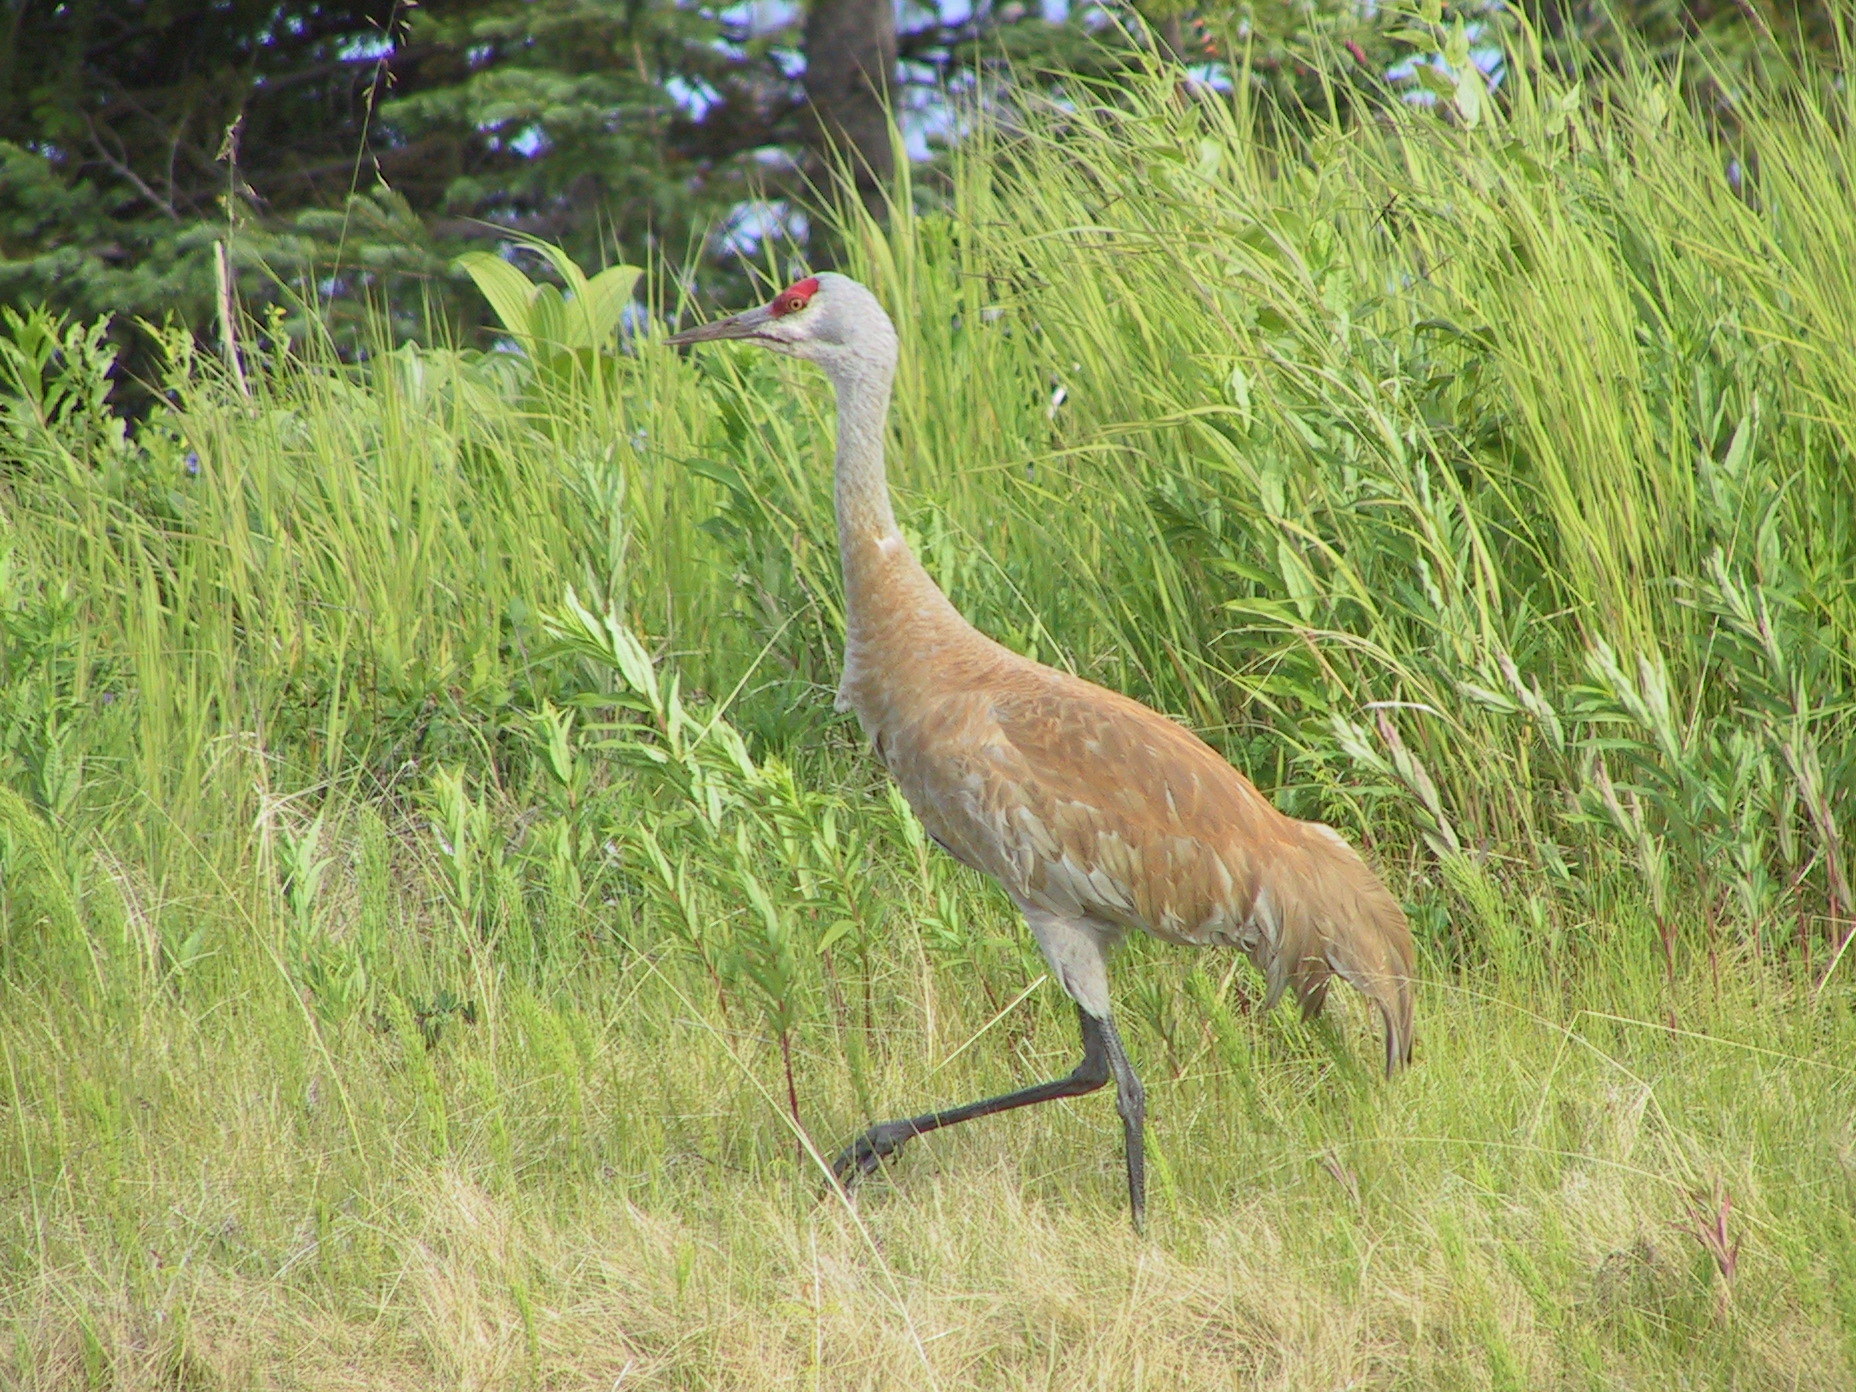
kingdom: Animalia
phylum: Chordata
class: Aves
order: Gruiformes
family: Gruidae
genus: Grus
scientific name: Grus canadensis
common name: Sandhill crane
